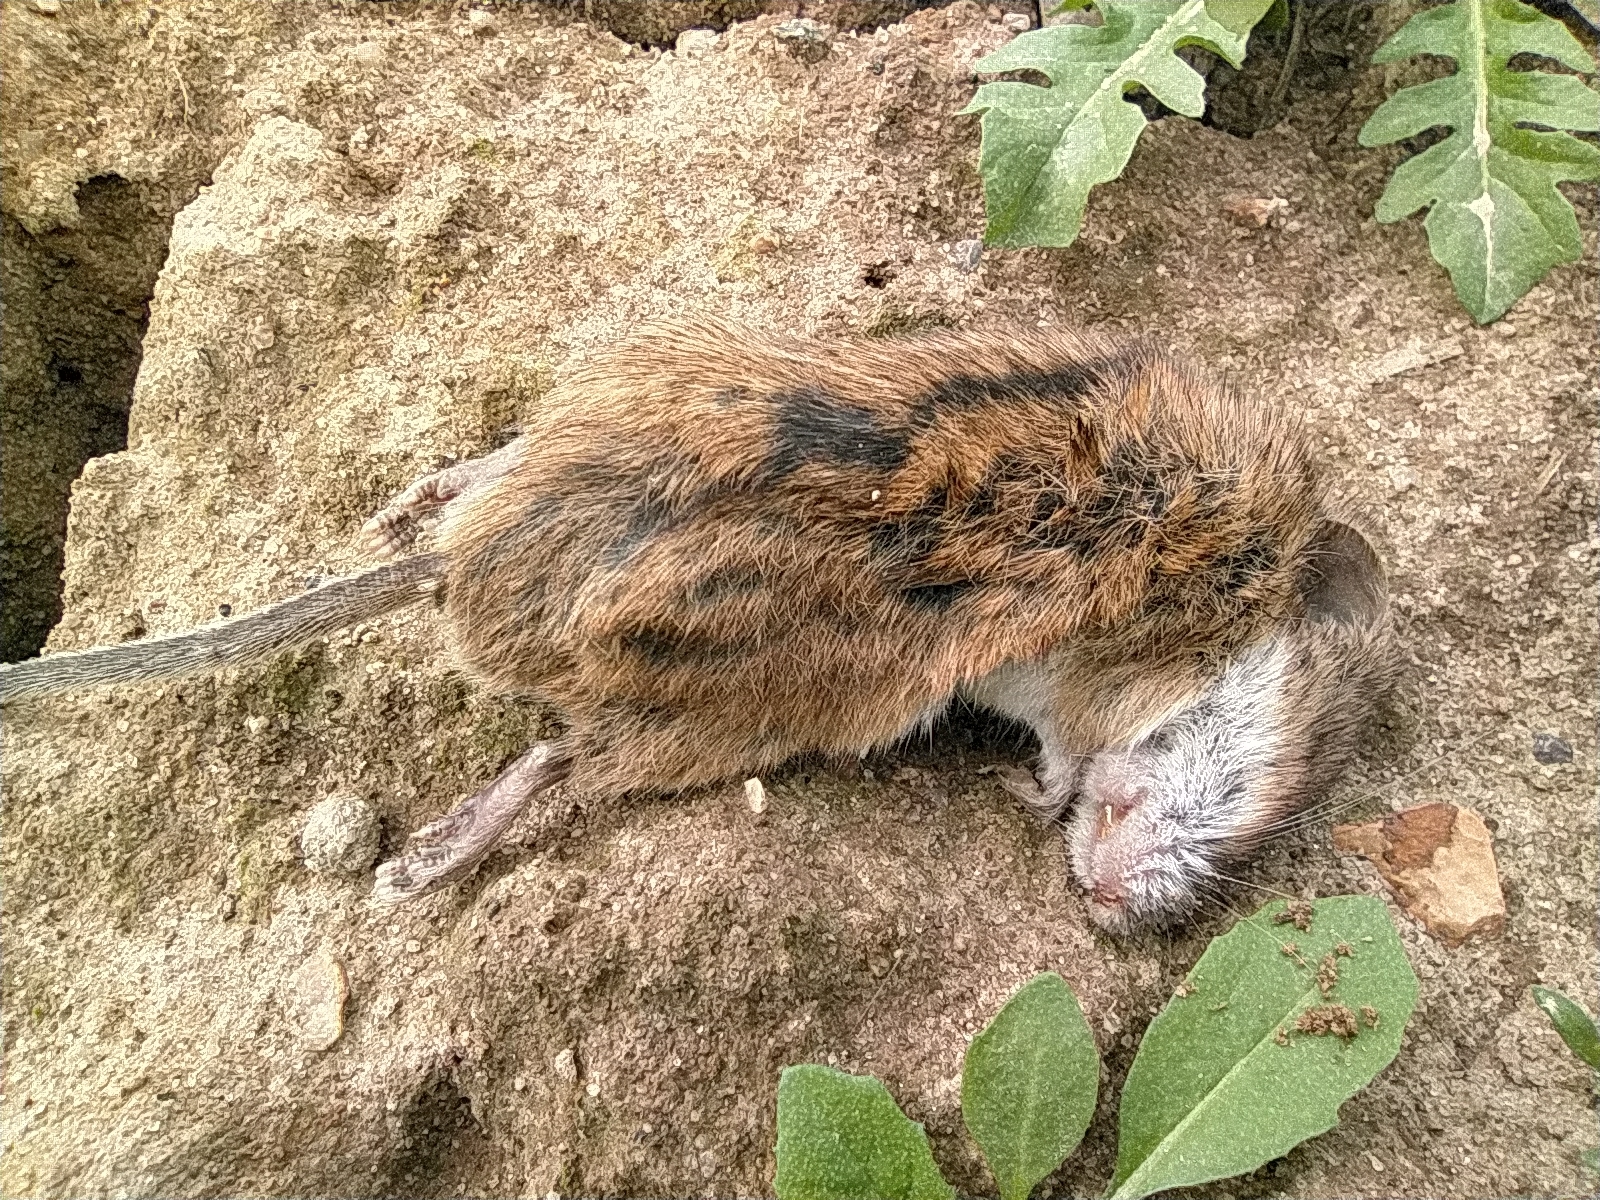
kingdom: Animalia
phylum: Chordata
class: Mammalia
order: Rodentia
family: Muridae
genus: Apodemus
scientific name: Apodemus agrarius
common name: Striped field mouse
